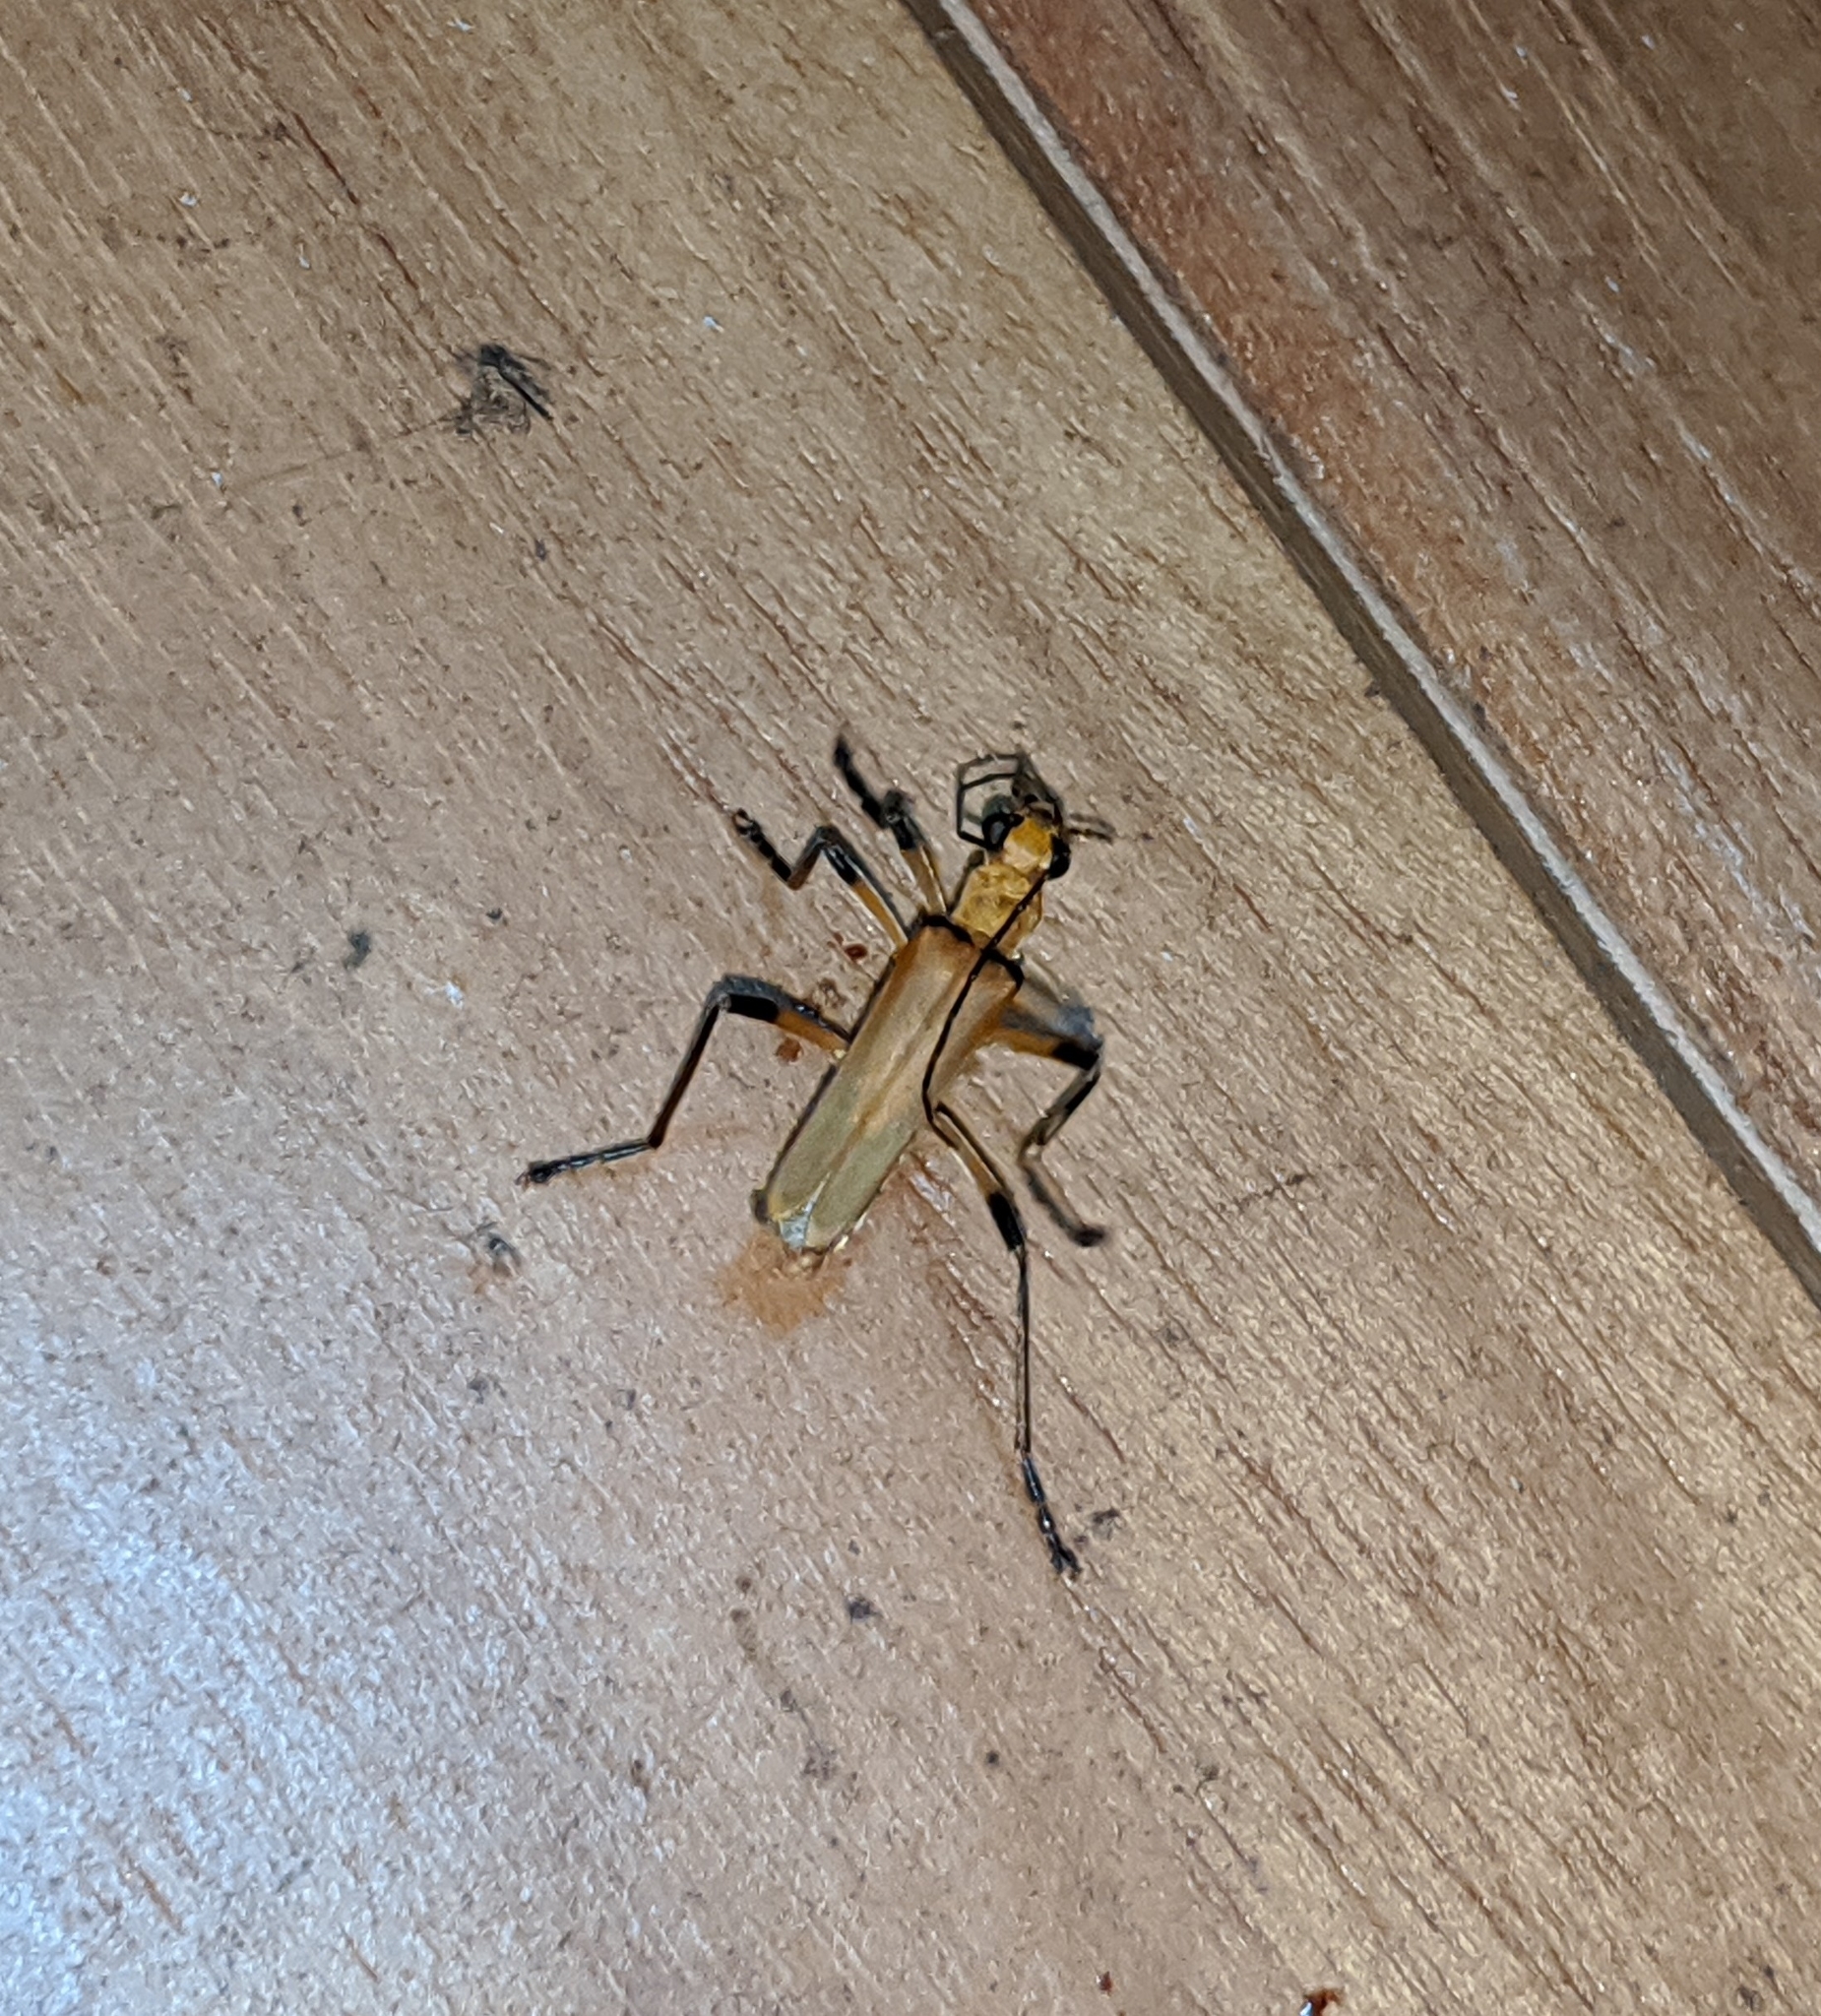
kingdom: Animalia
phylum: Arthropoda
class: Insecta
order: Coleoptera
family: Cantharidae
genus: Chauliognathus
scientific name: Chauliognathus
